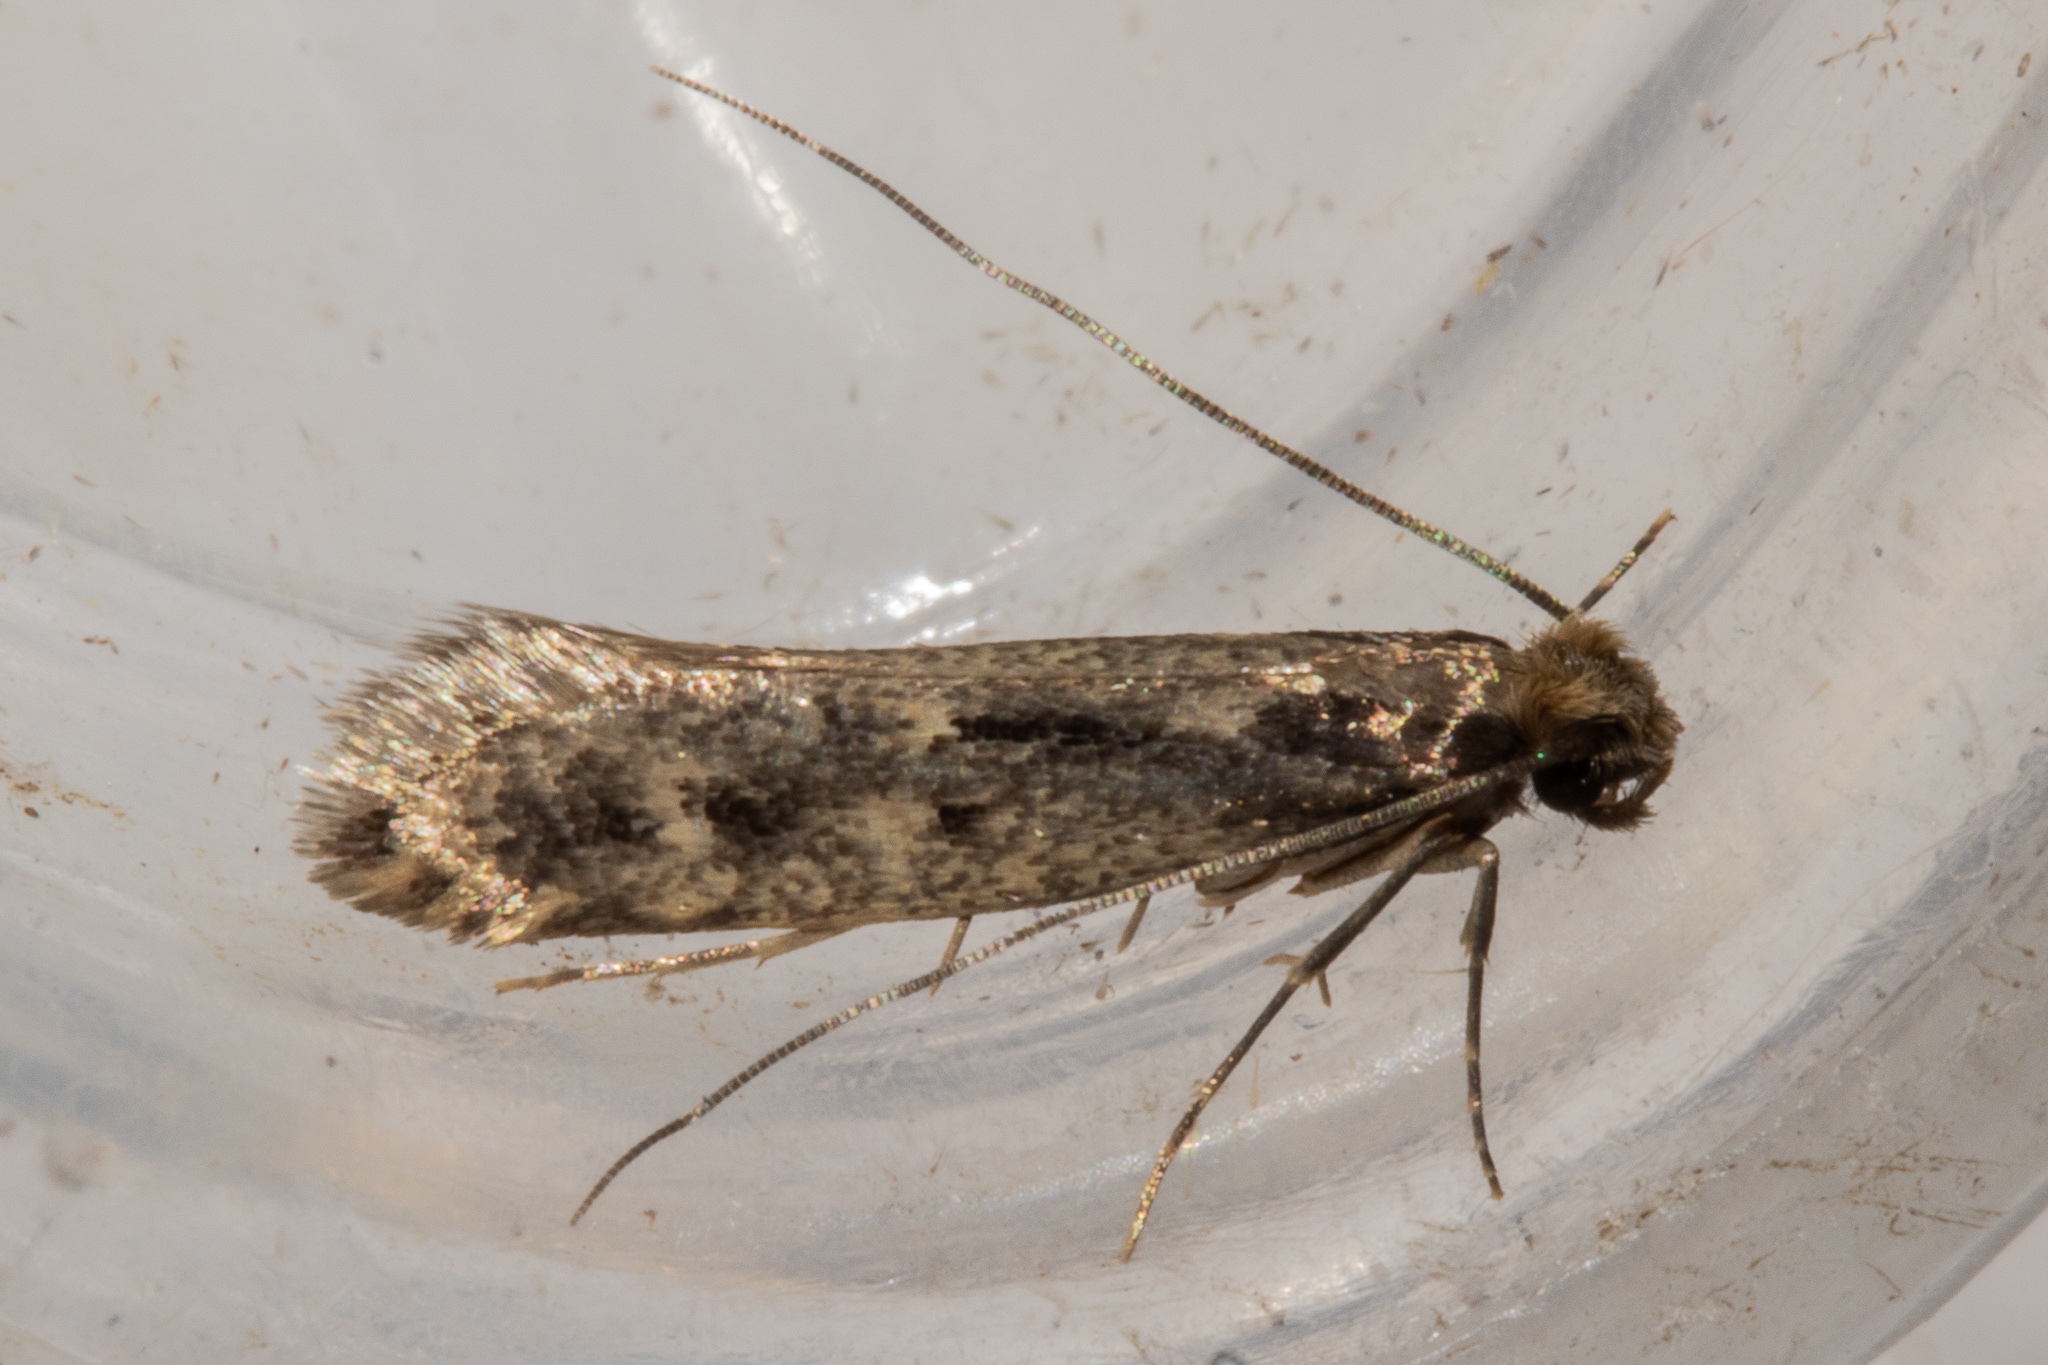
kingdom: Animalia
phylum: Arthropoda
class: Insecta
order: Lepidoptera
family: Tineidae
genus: Tinea
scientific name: Tinea pallescentella
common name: Large pale clothes moth
